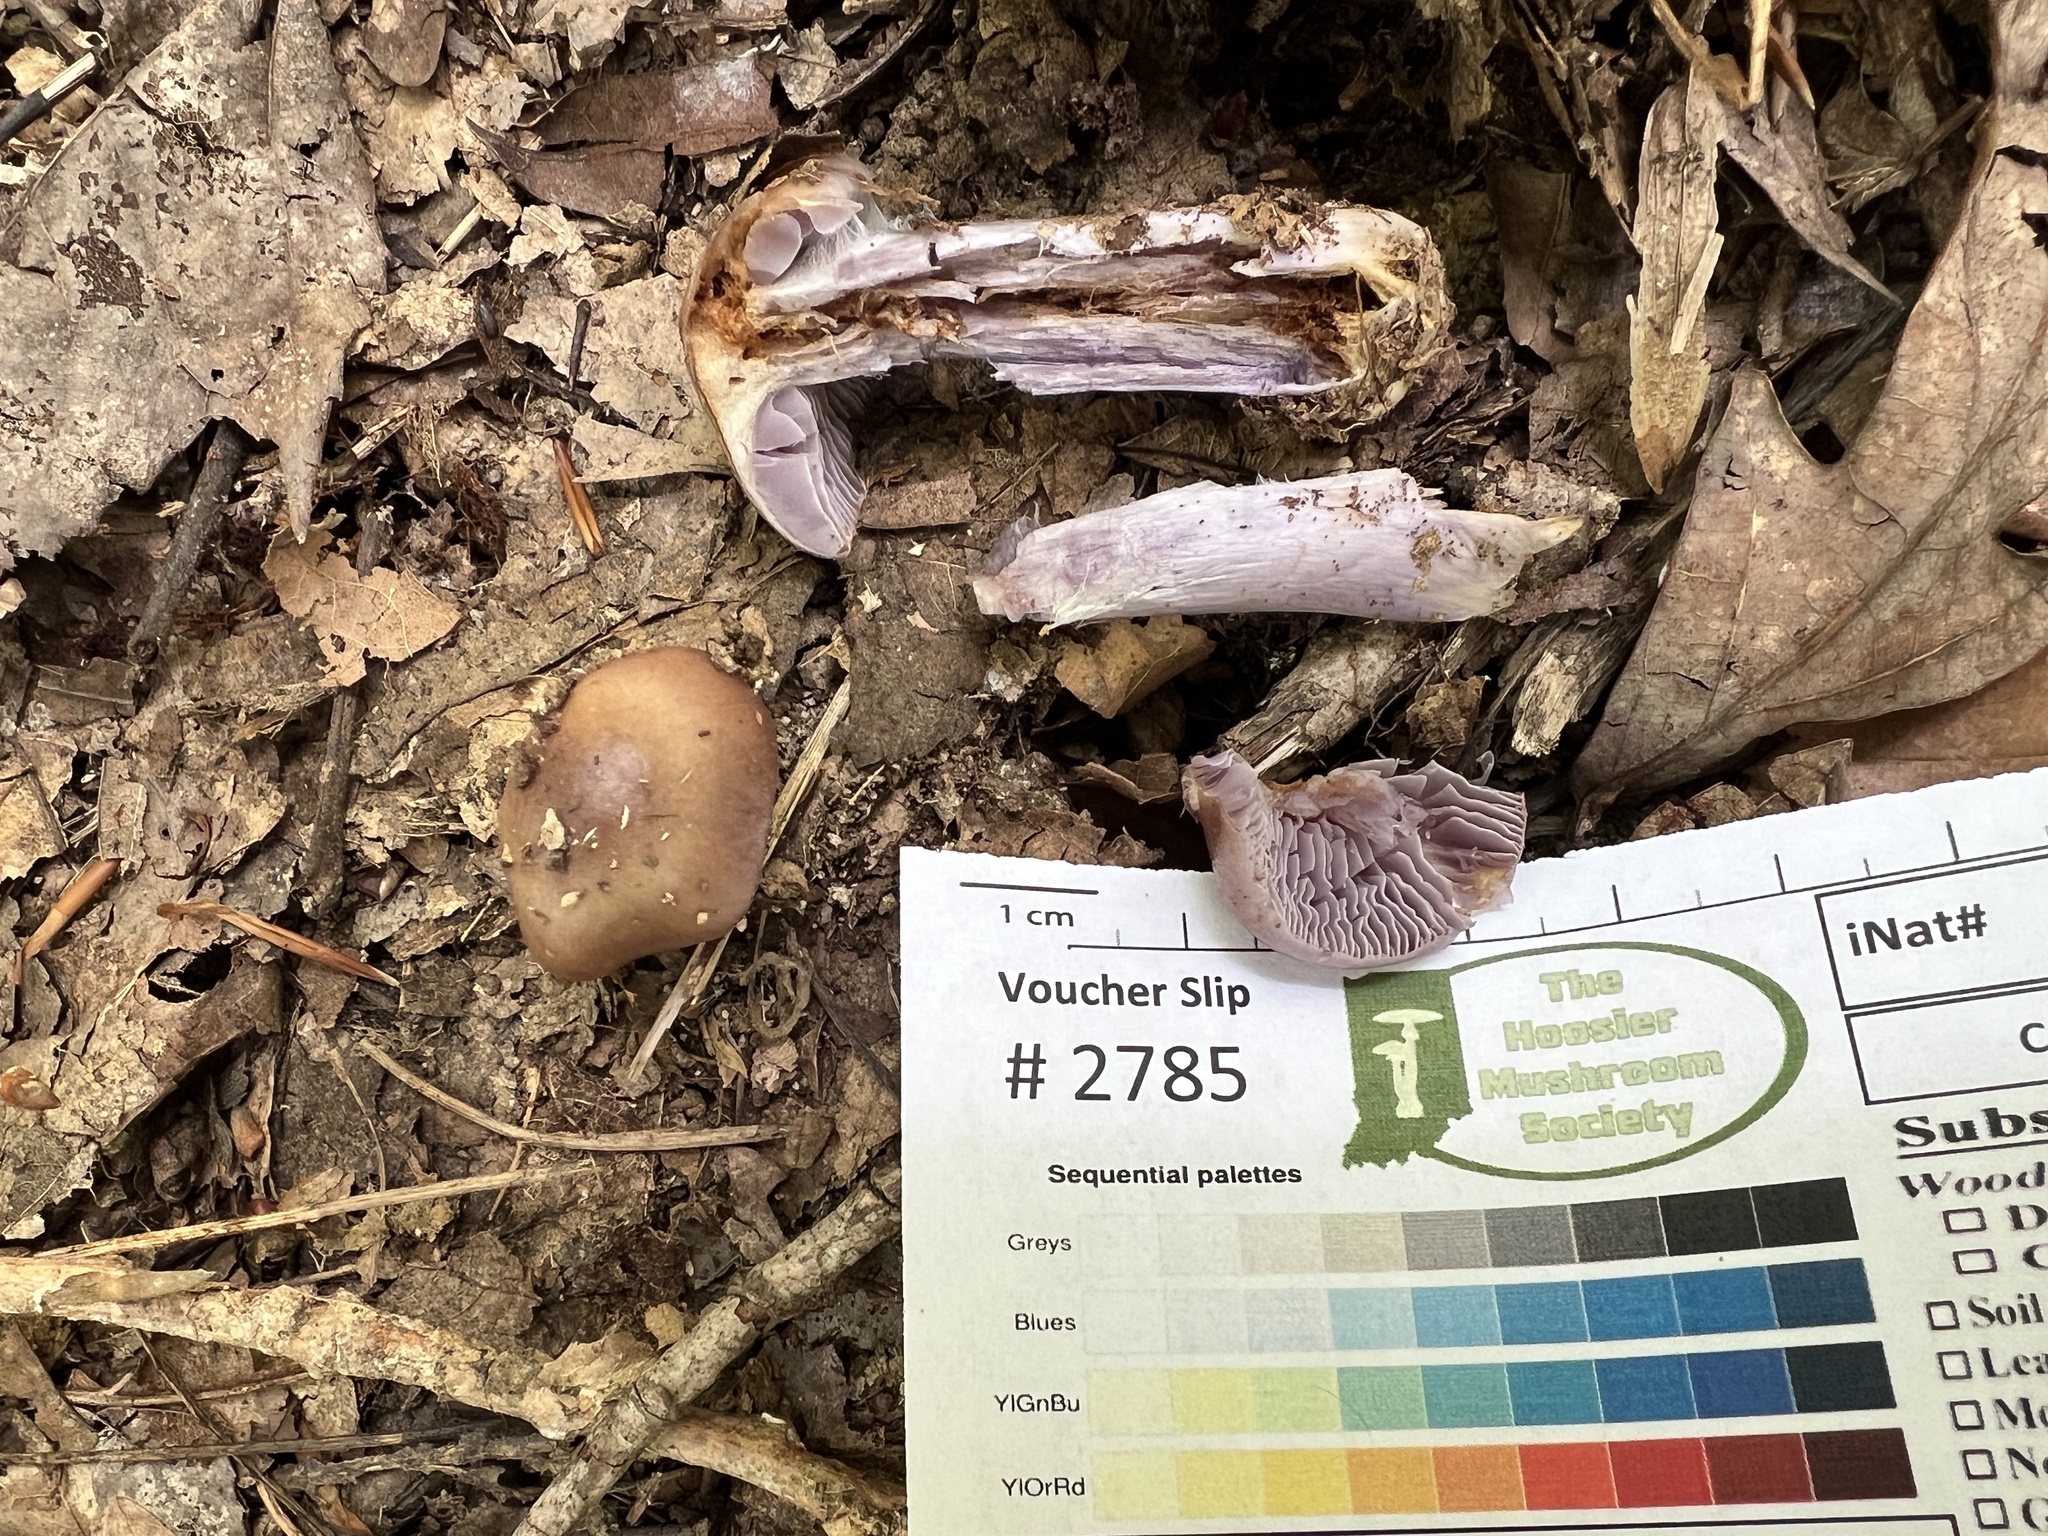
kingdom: Fungi
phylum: Basidiomycota
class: Agaricomycetes
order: Agaricales
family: Cortinariaceae
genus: Cortinarius
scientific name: Cortinarius splendidus
